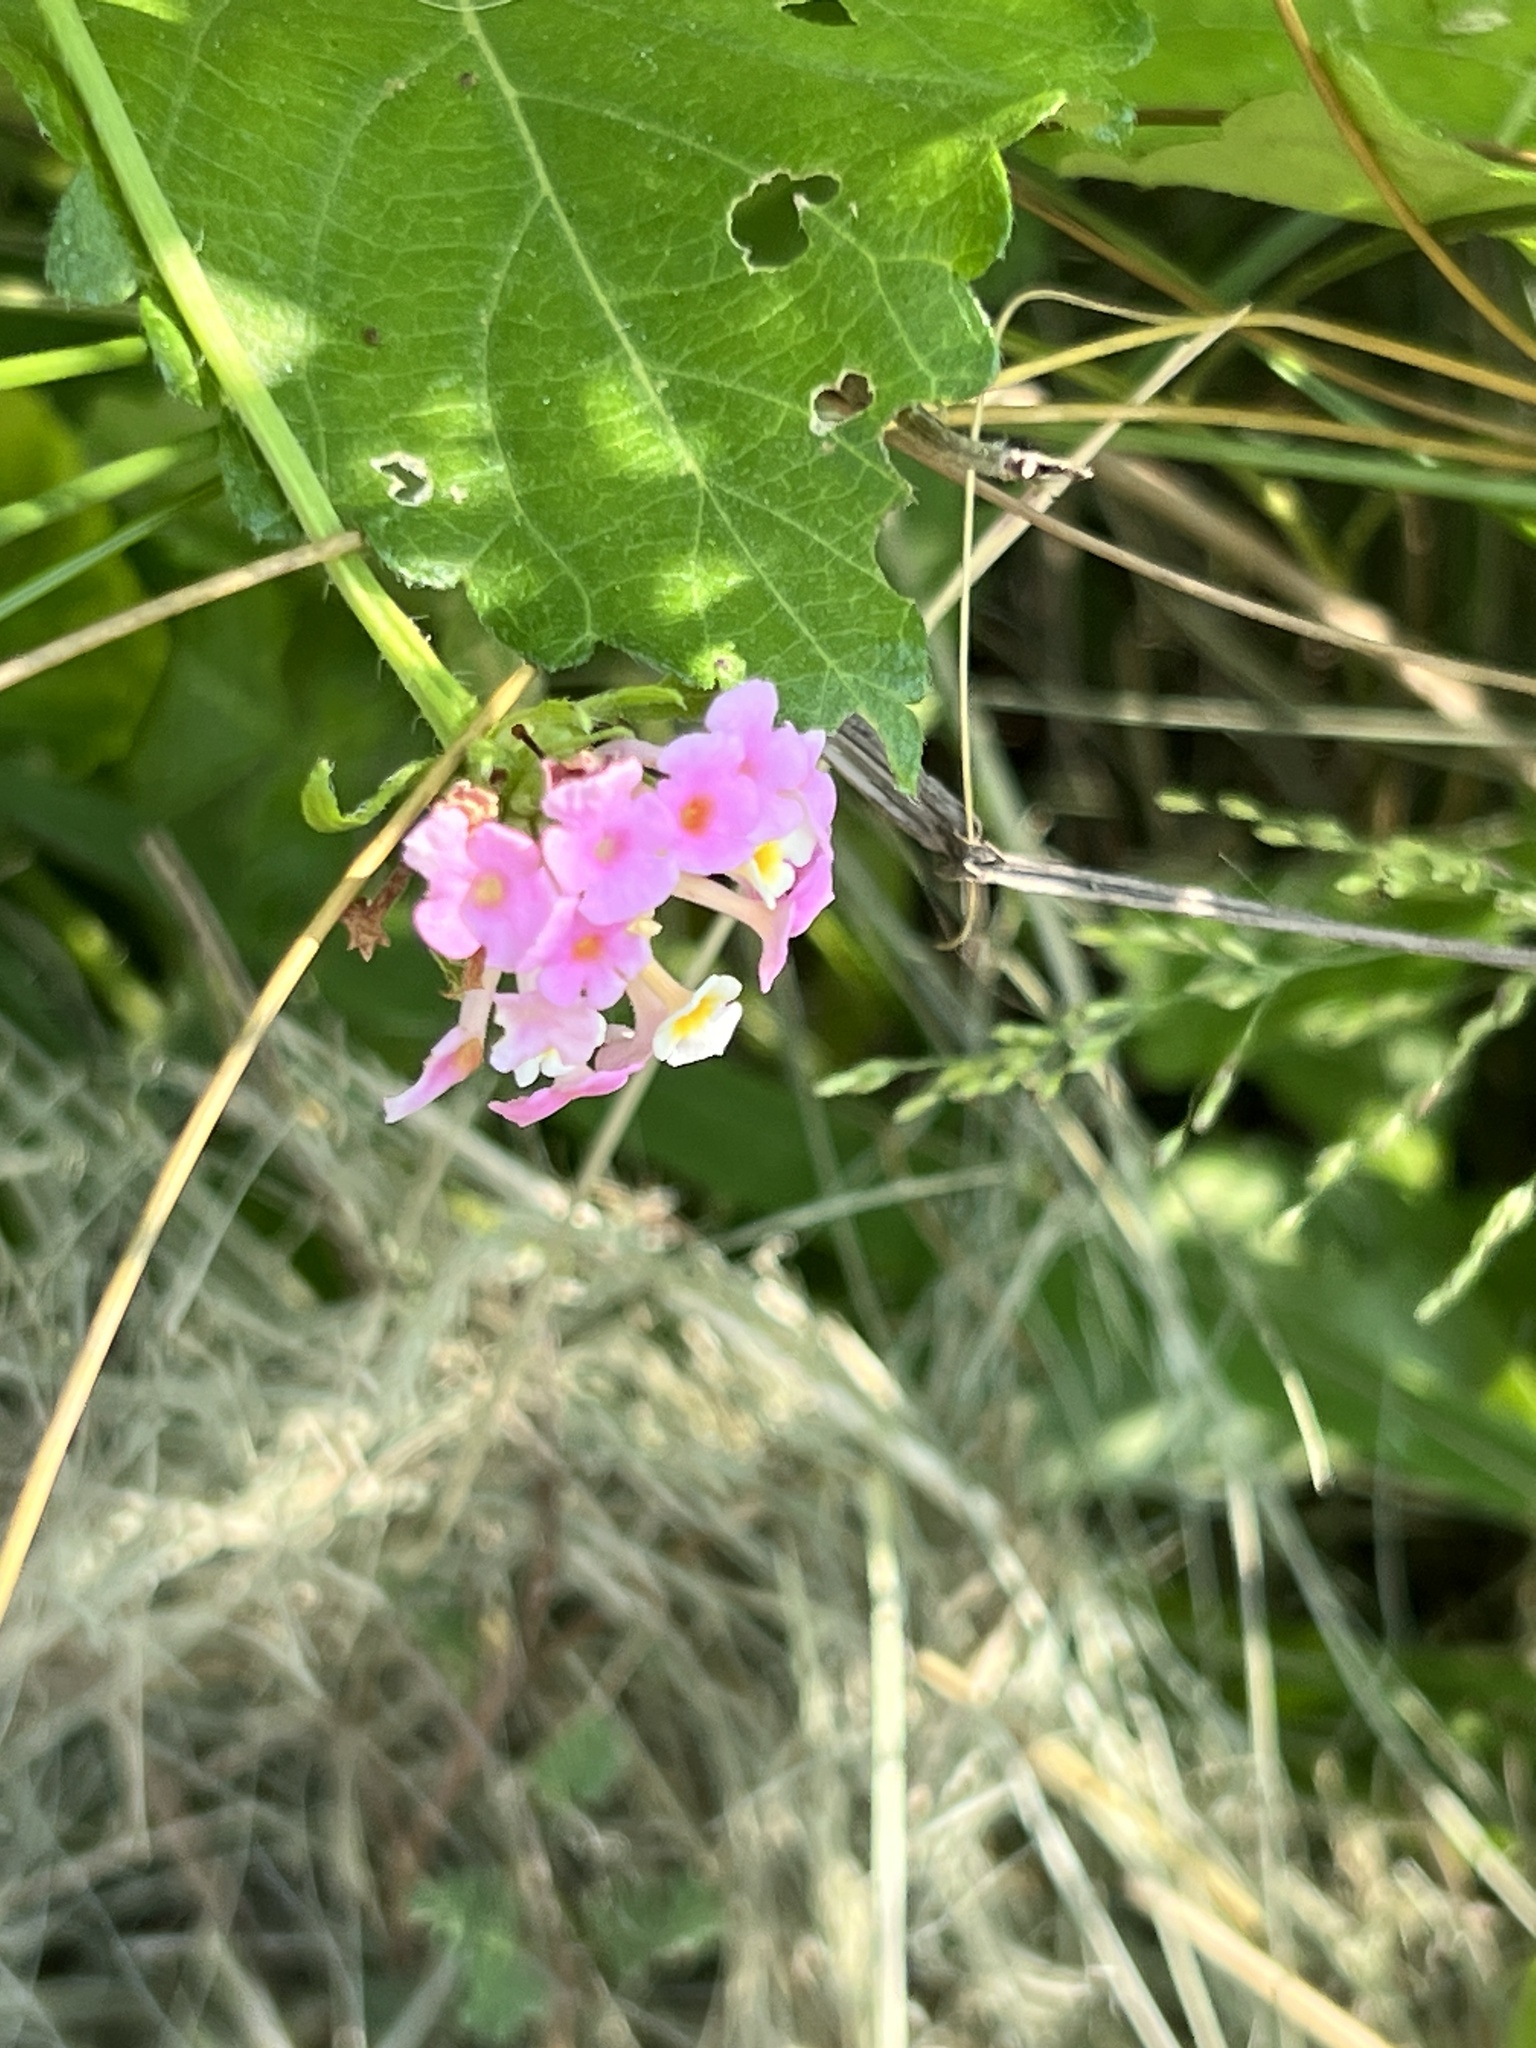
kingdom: Plantae
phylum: Tracheophyta
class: Magnoliopsida
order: Lamiales
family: Verbenaceae
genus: Lantana
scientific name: Lantana strigocamara
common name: Lantana
